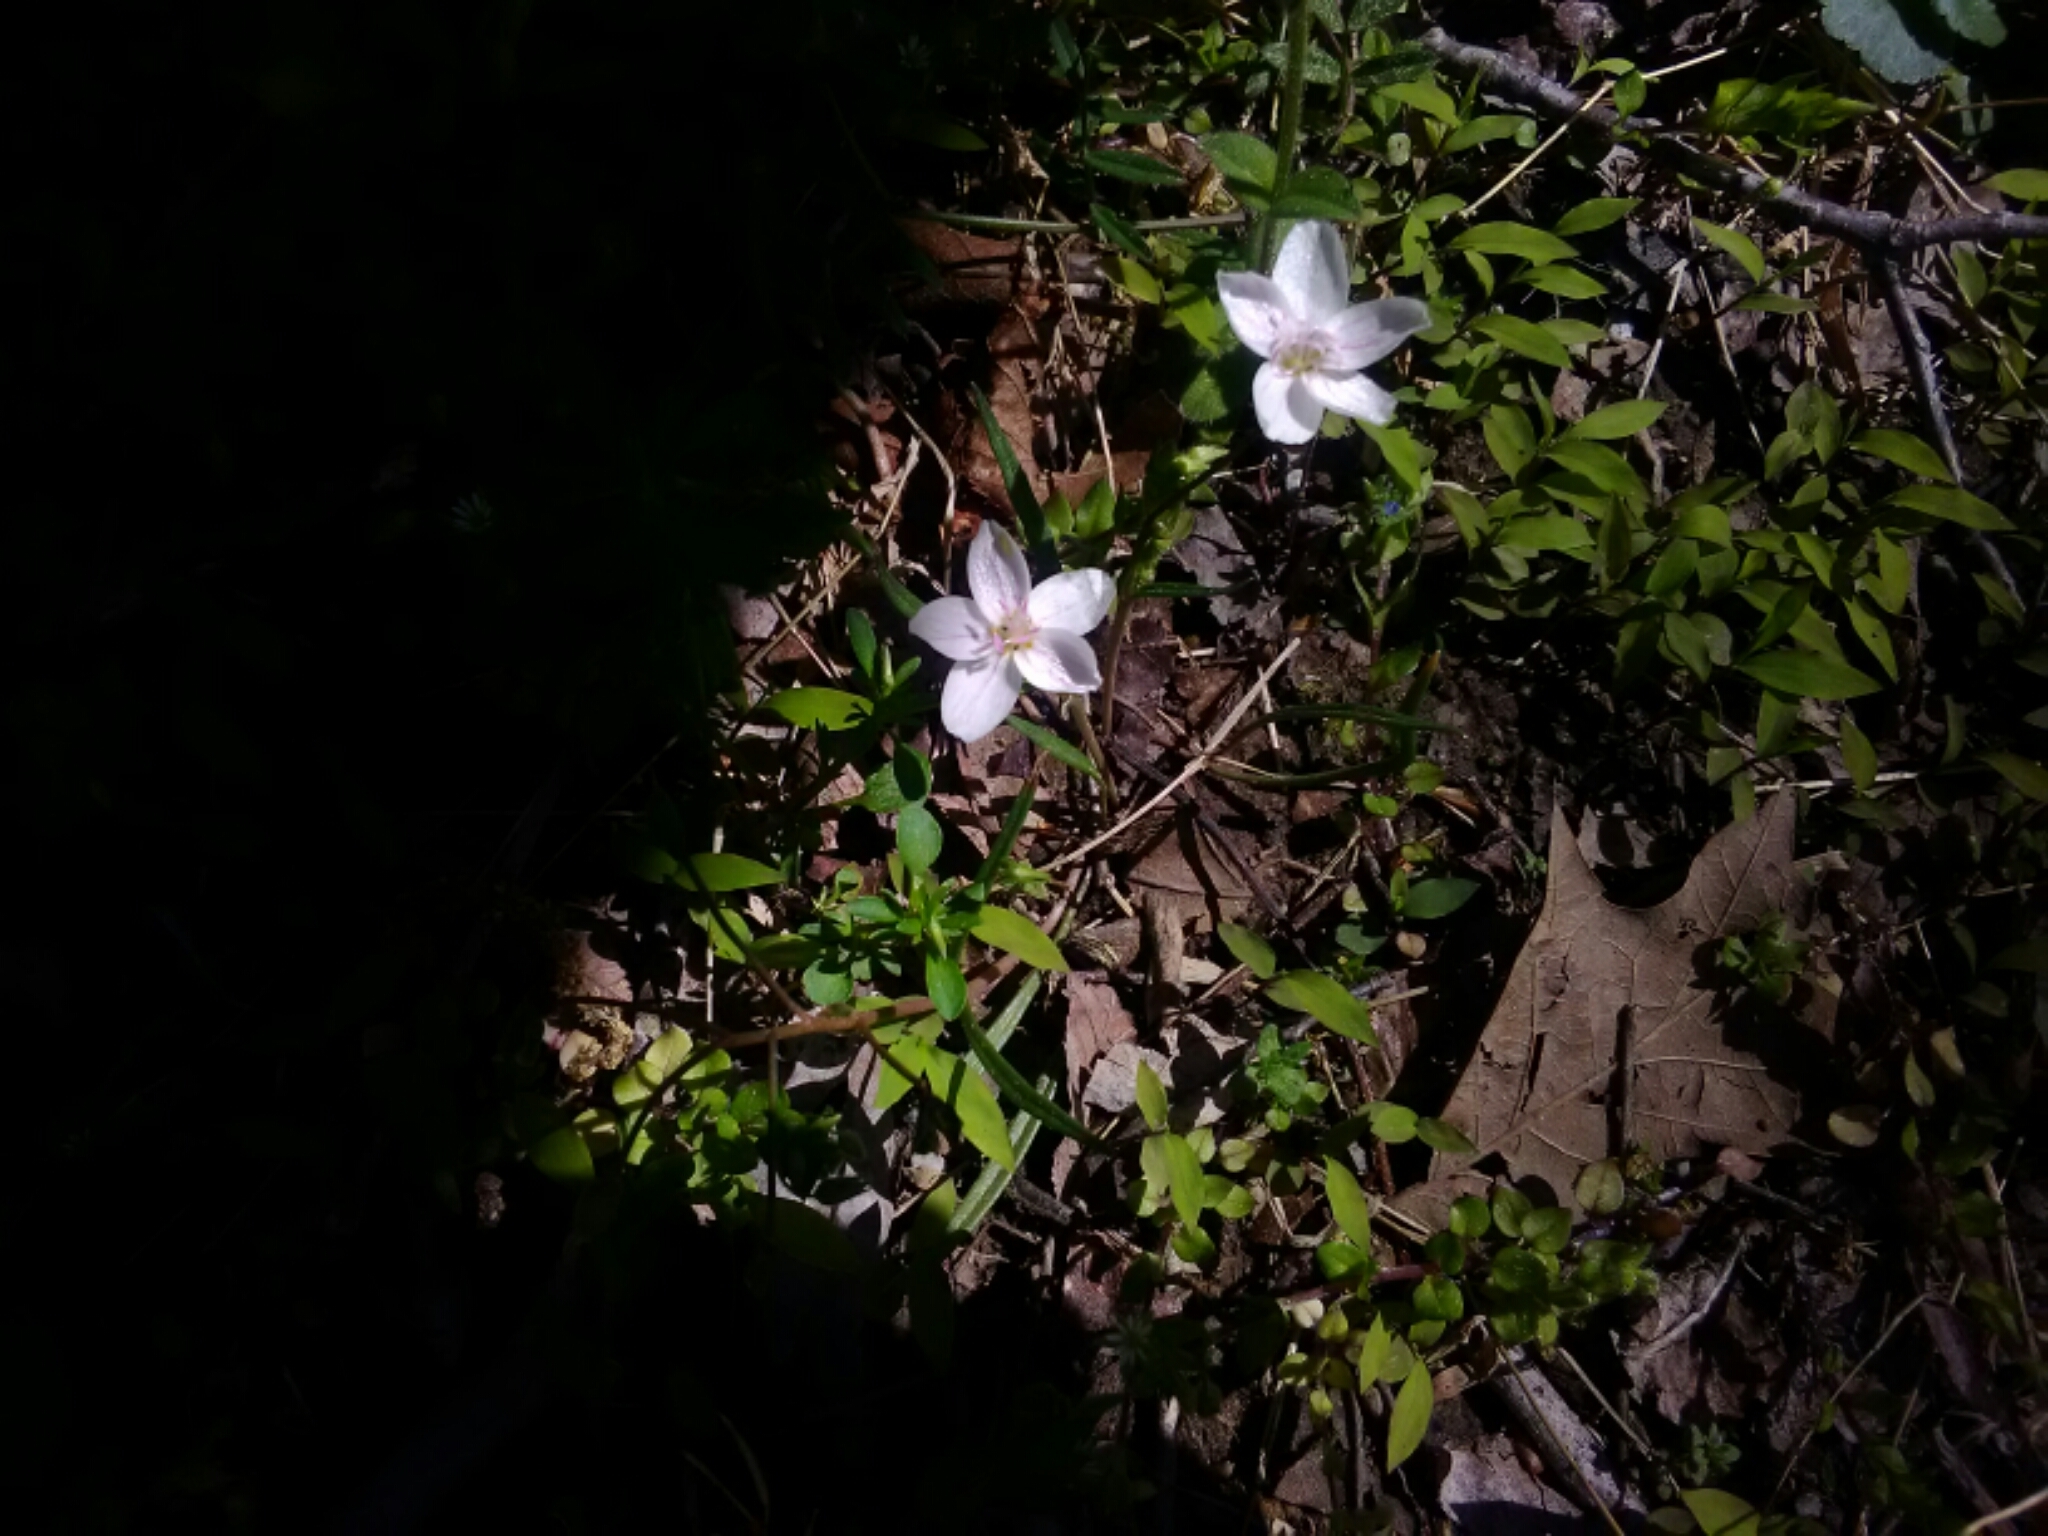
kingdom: Plantae
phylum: Tracheophyta
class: Magnoliopsida
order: Caryophyllales
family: Montiaceae
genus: Claytonia
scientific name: Claytonia virginica
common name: Virginia springbeauty
